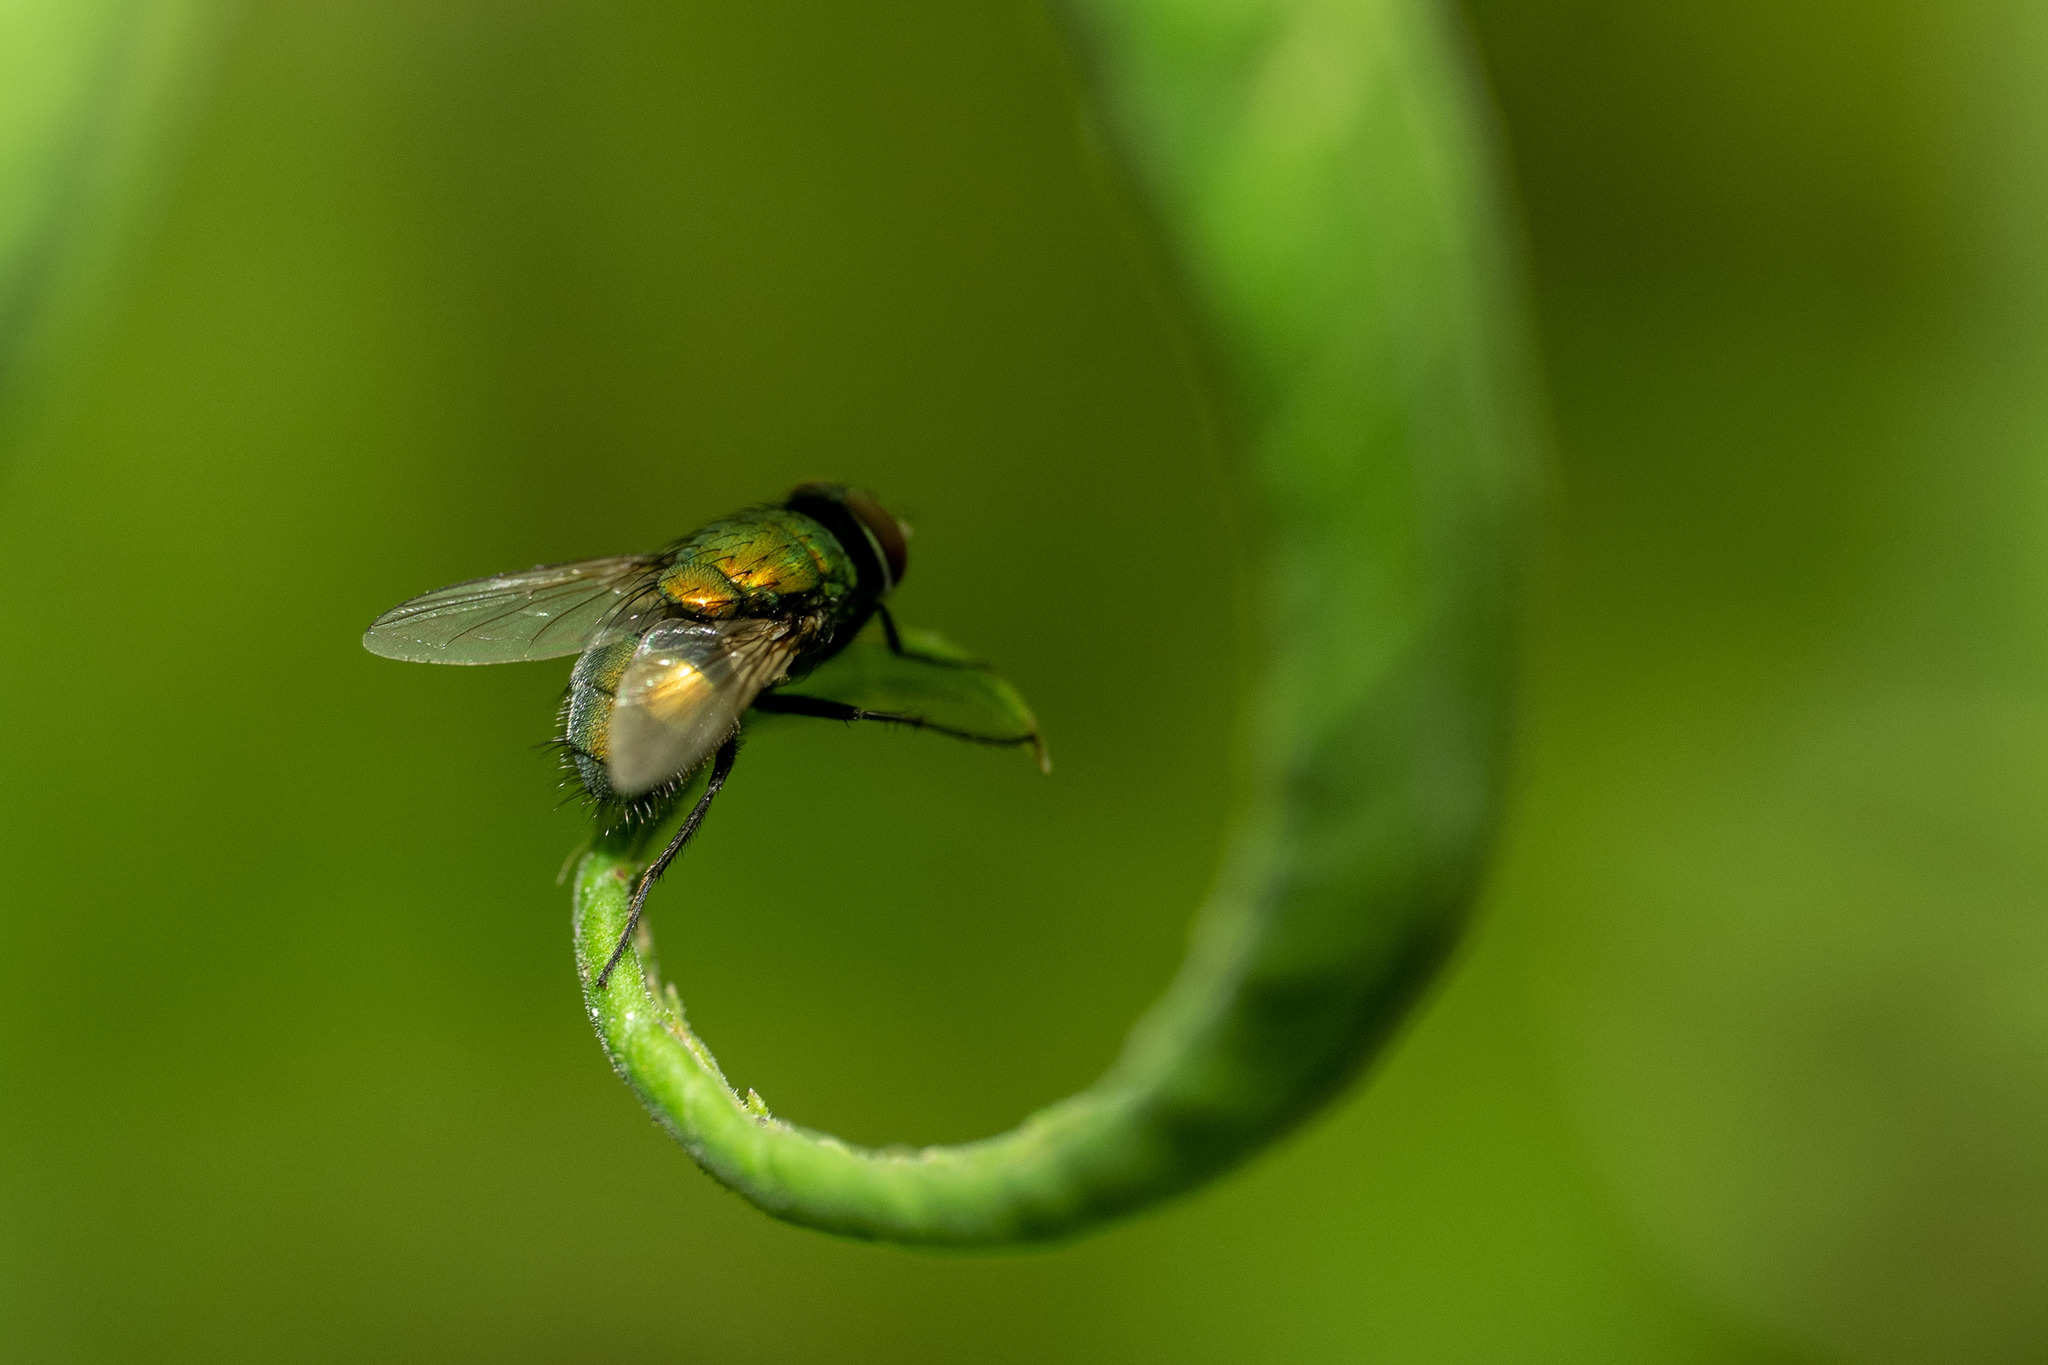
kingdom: Animalia
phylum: Arthropoda
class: Insecta
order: Diptera
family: Calliphoridae
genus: Lucilia
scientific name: Lucilia sericata
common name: Blow fly
